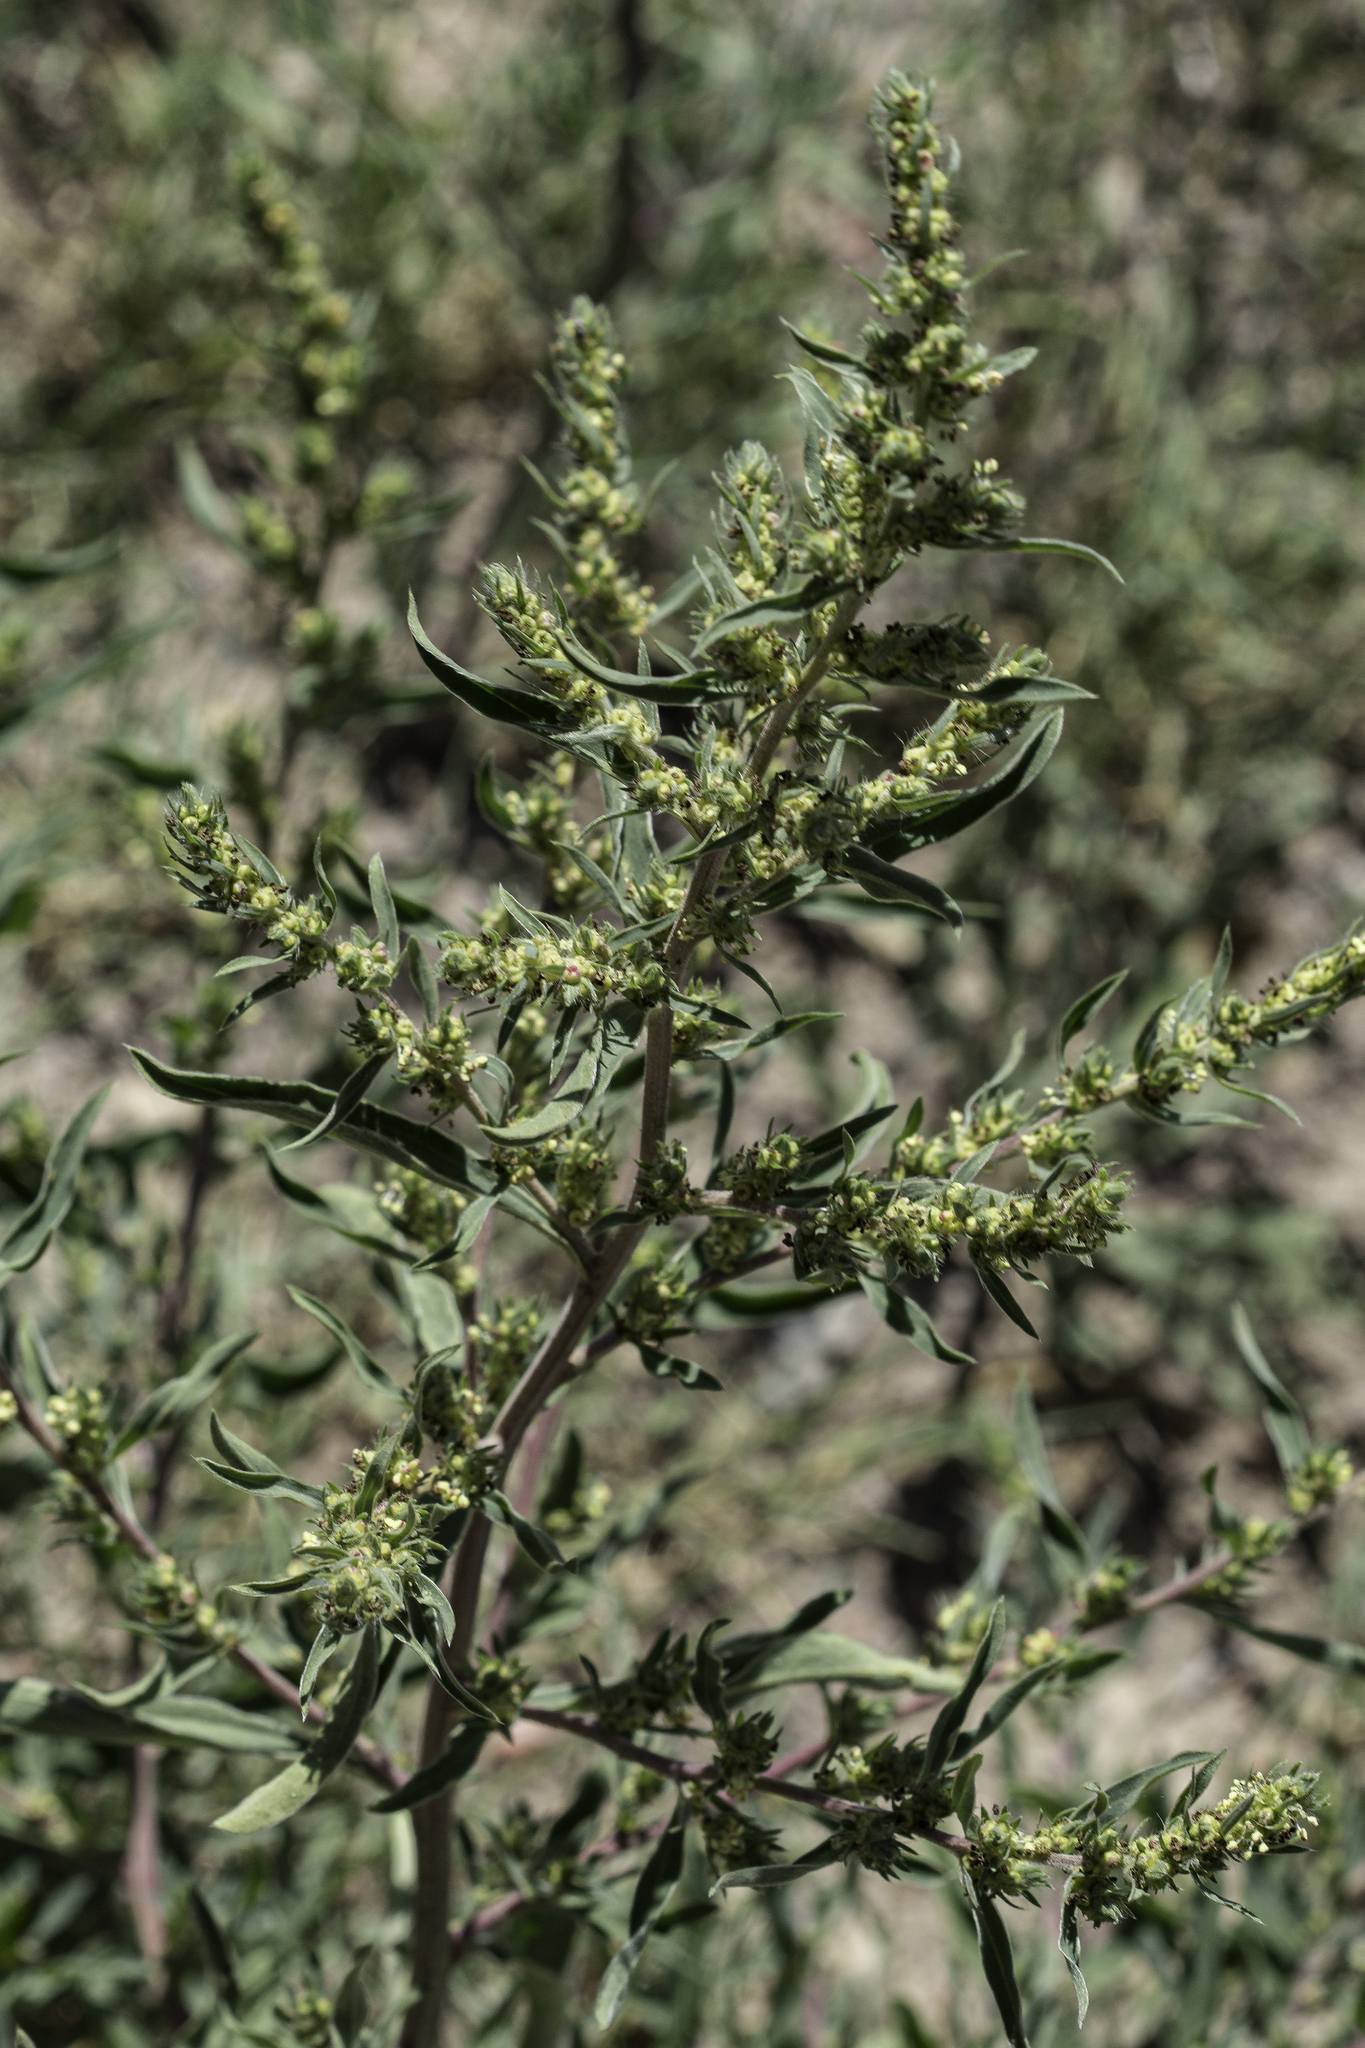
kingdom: Plantae
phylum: Tracheophyta
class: Magnoliopsida
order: Caryophyllales
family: Amaranthaceae
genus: Bassia
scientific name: Bassia scoparia
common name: Belvedere
